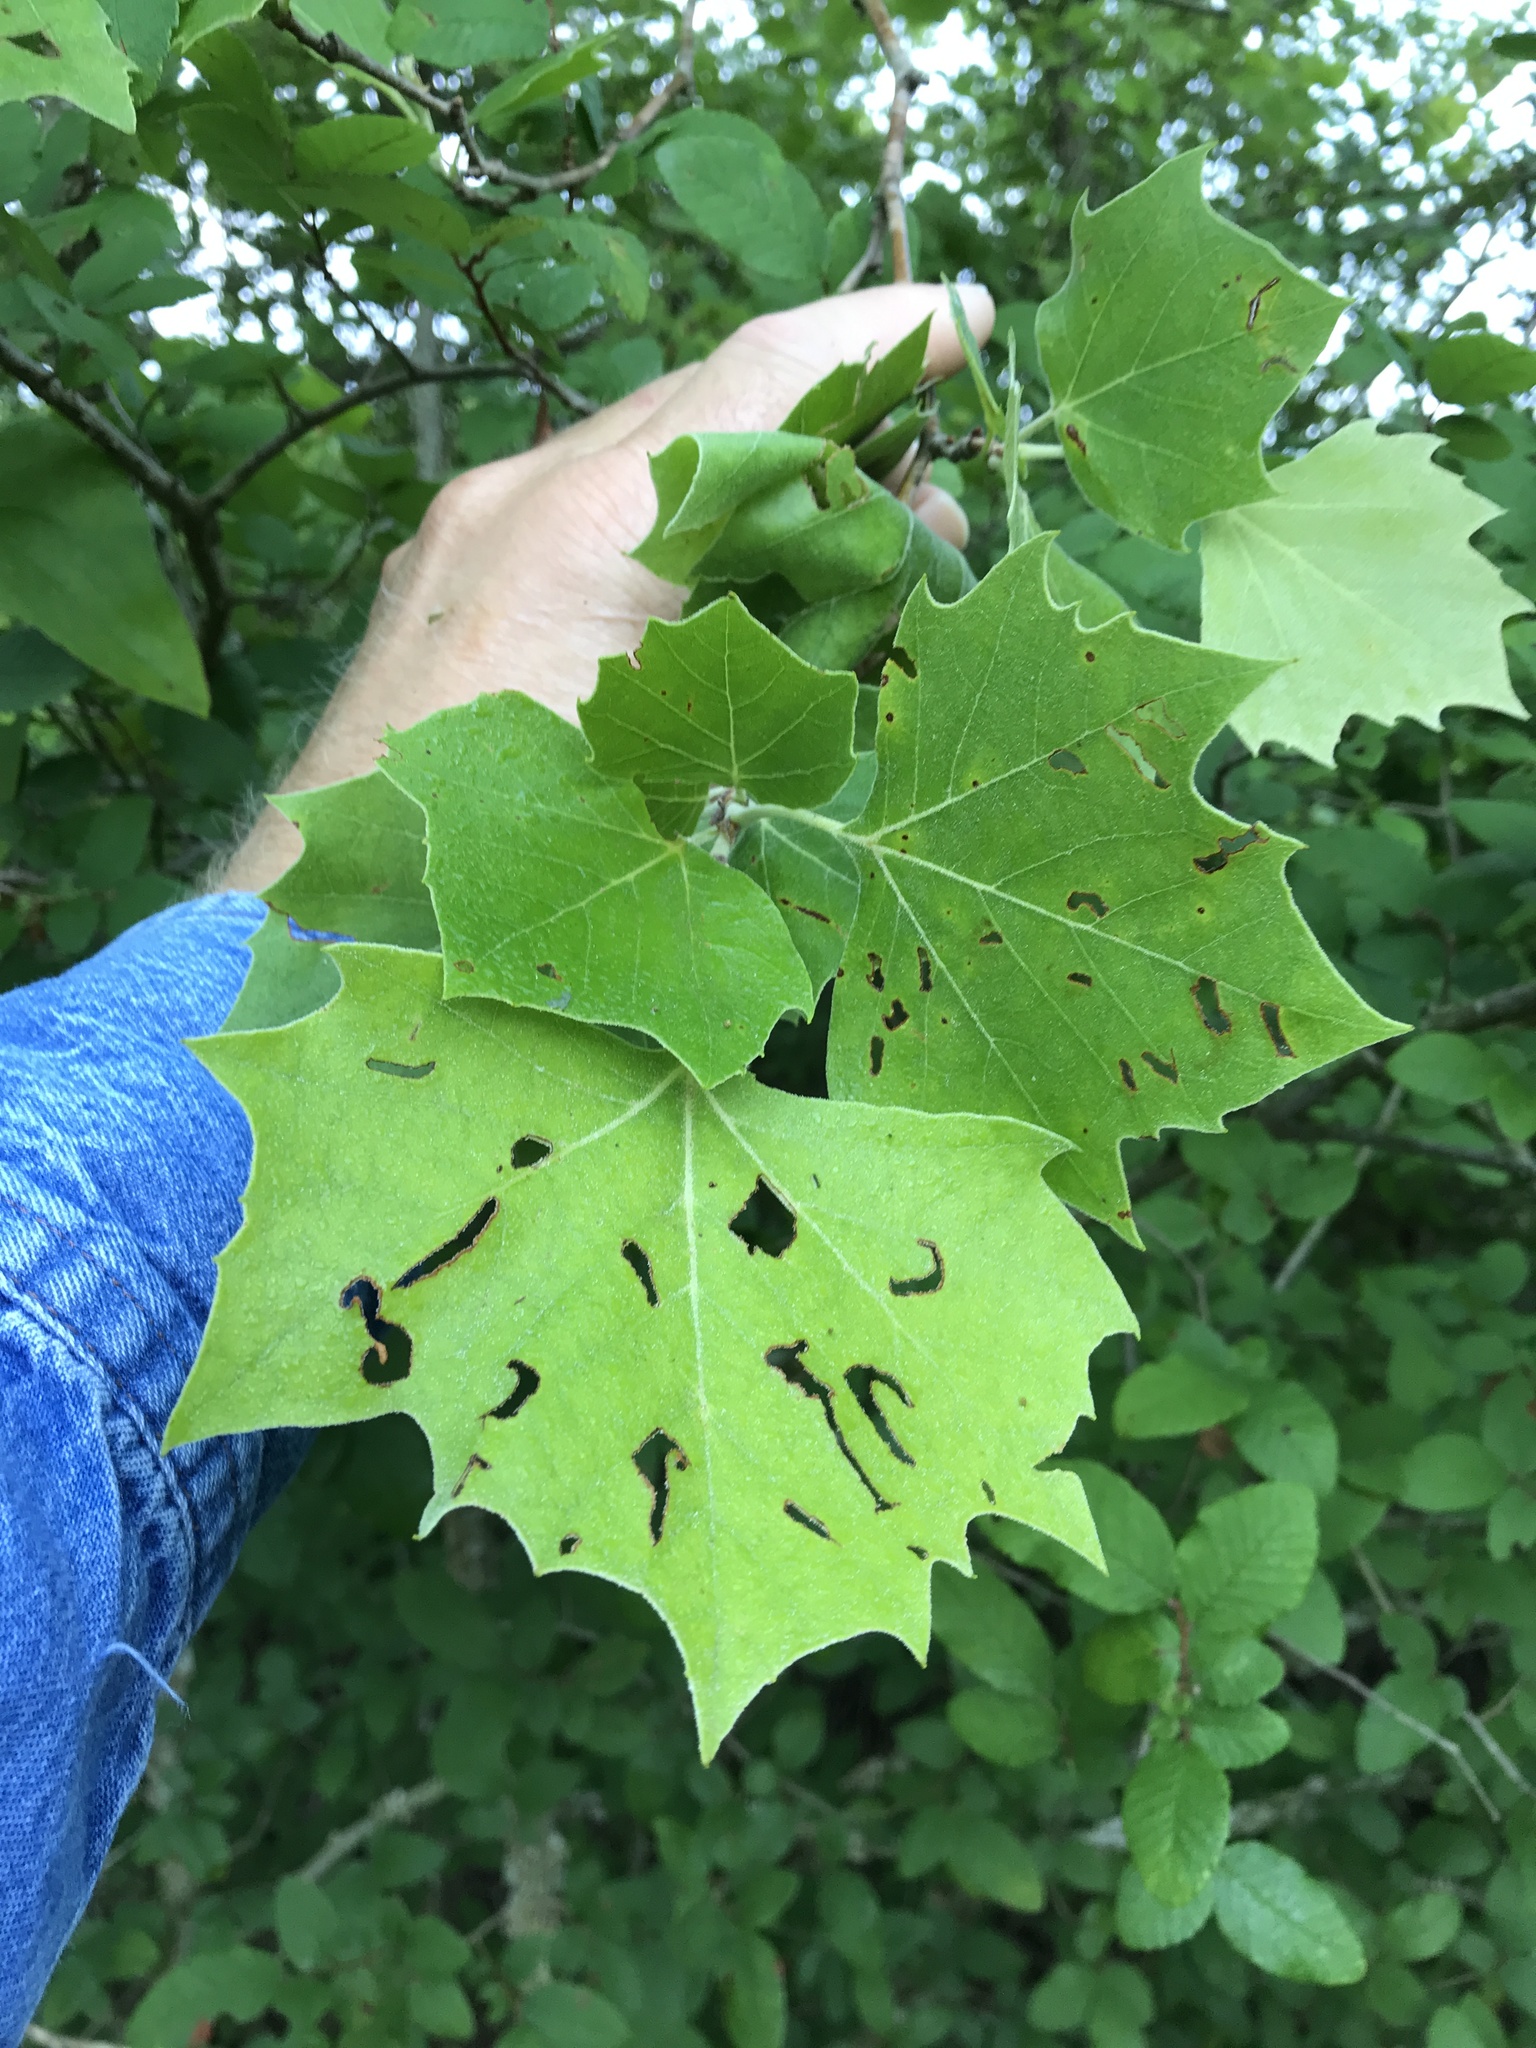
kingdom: Plantae
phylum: Tracheophyta
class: Magnoliopsida
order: Proteales
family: Platanaceae
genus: Platanus
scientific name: Platanus occidentalis
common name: American sycamore
